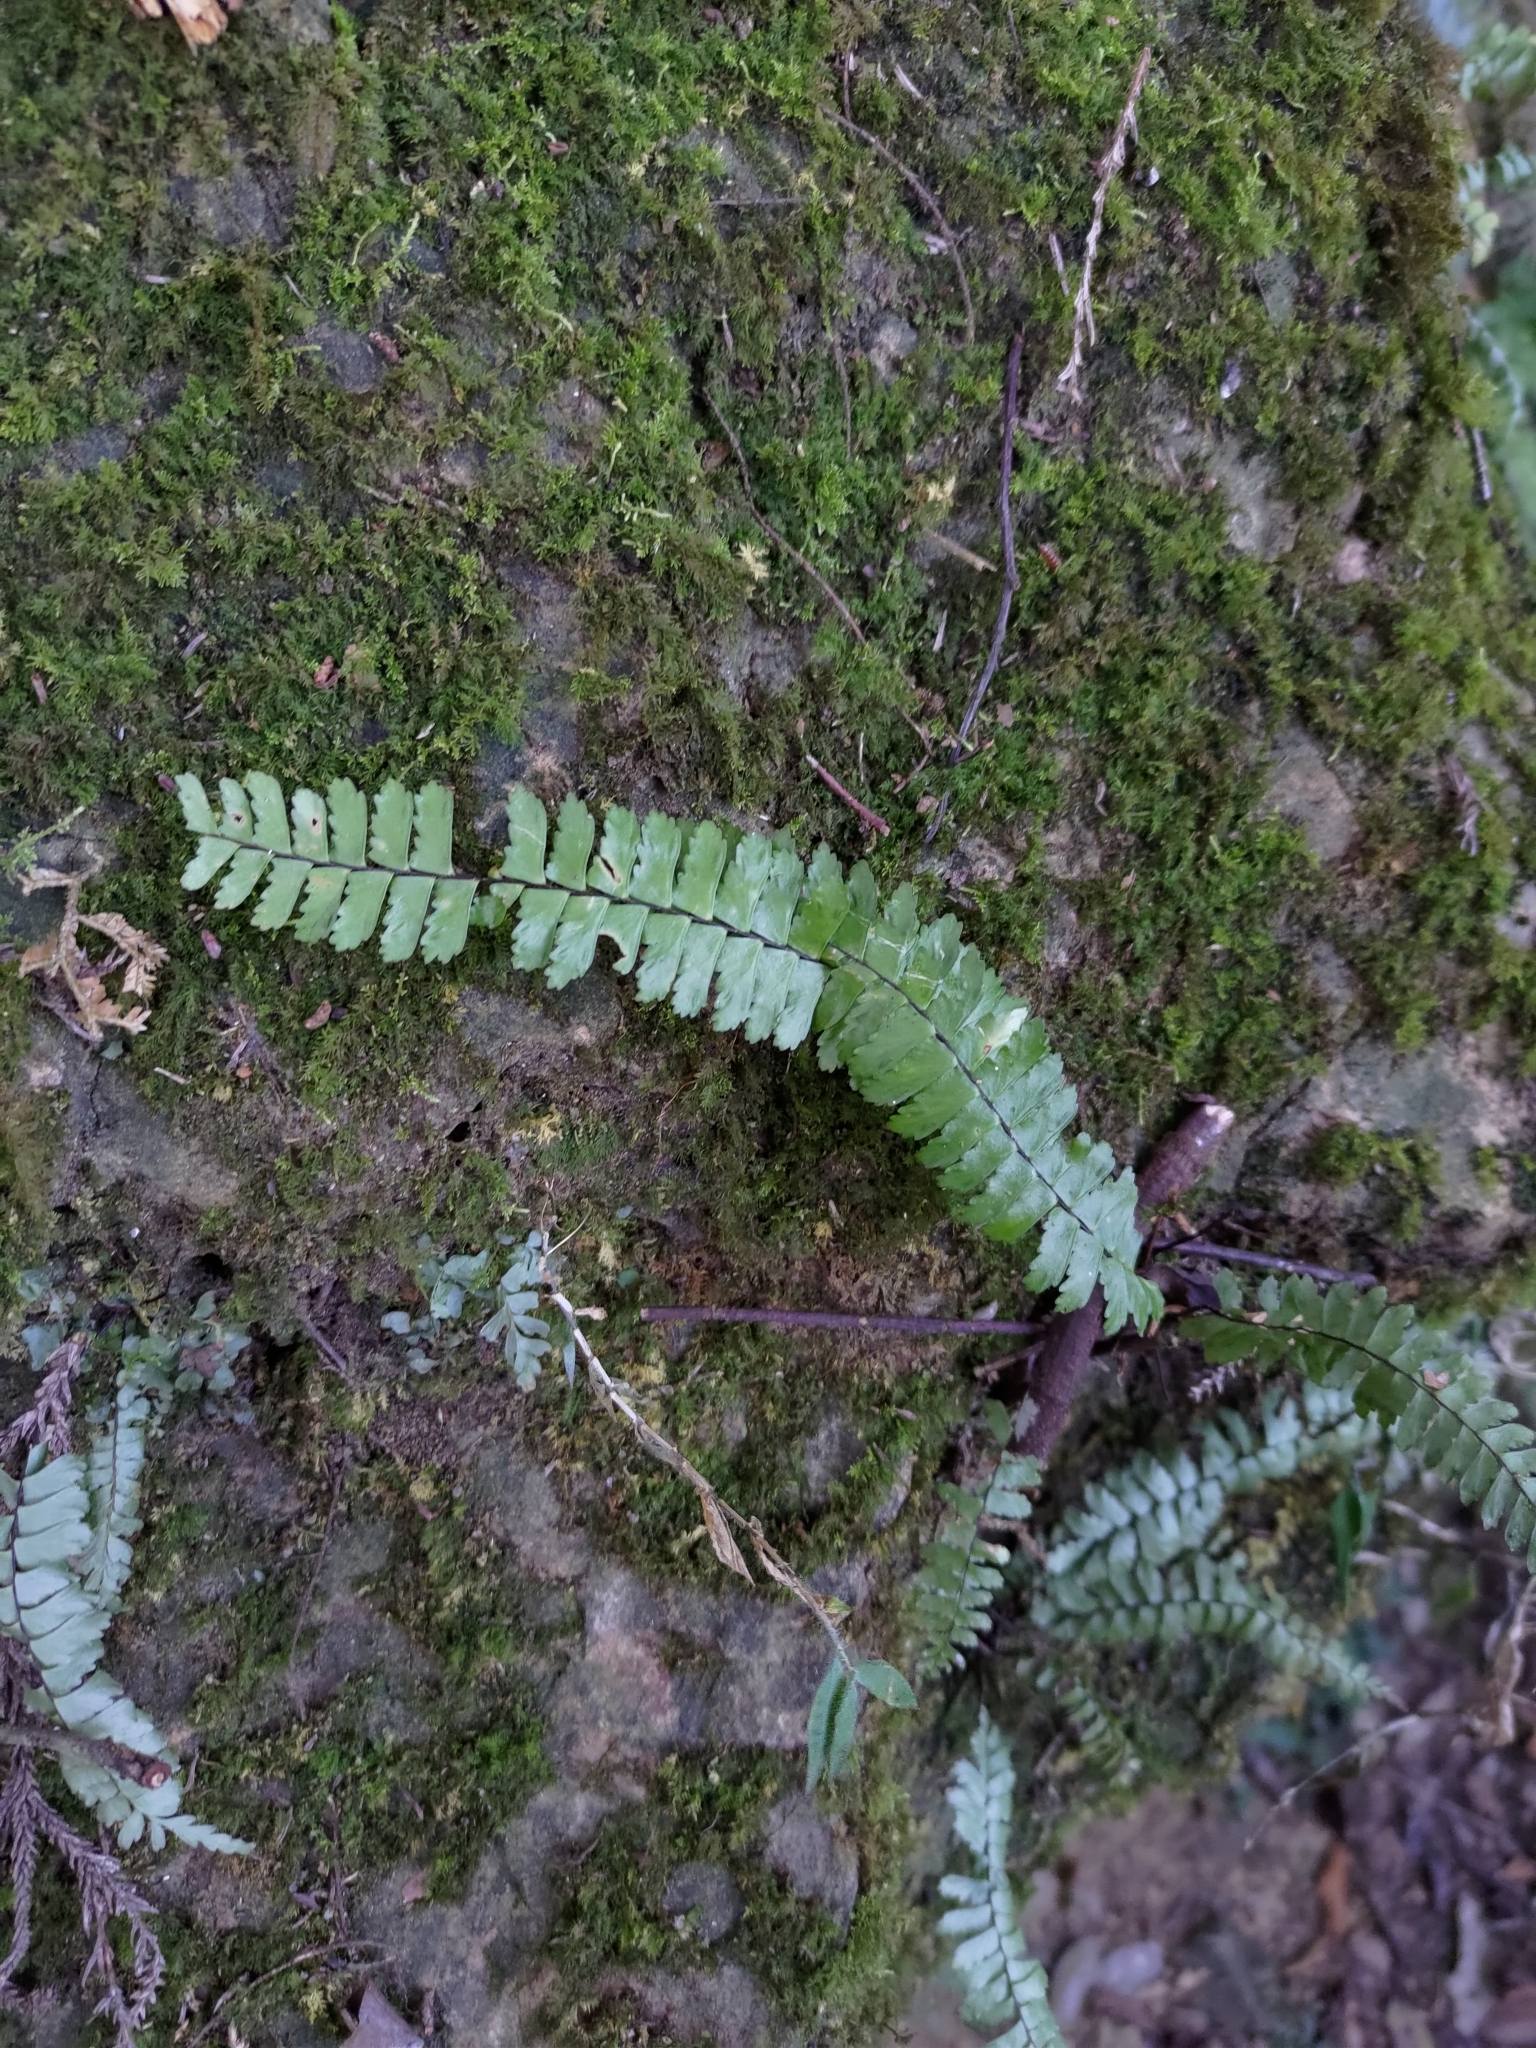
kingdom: Plantae
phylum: Tracheophyta
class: Polypodiopsida
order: Polypodiales
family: Aspleniaceae
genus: Asplenium
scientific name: Asplenium normale
